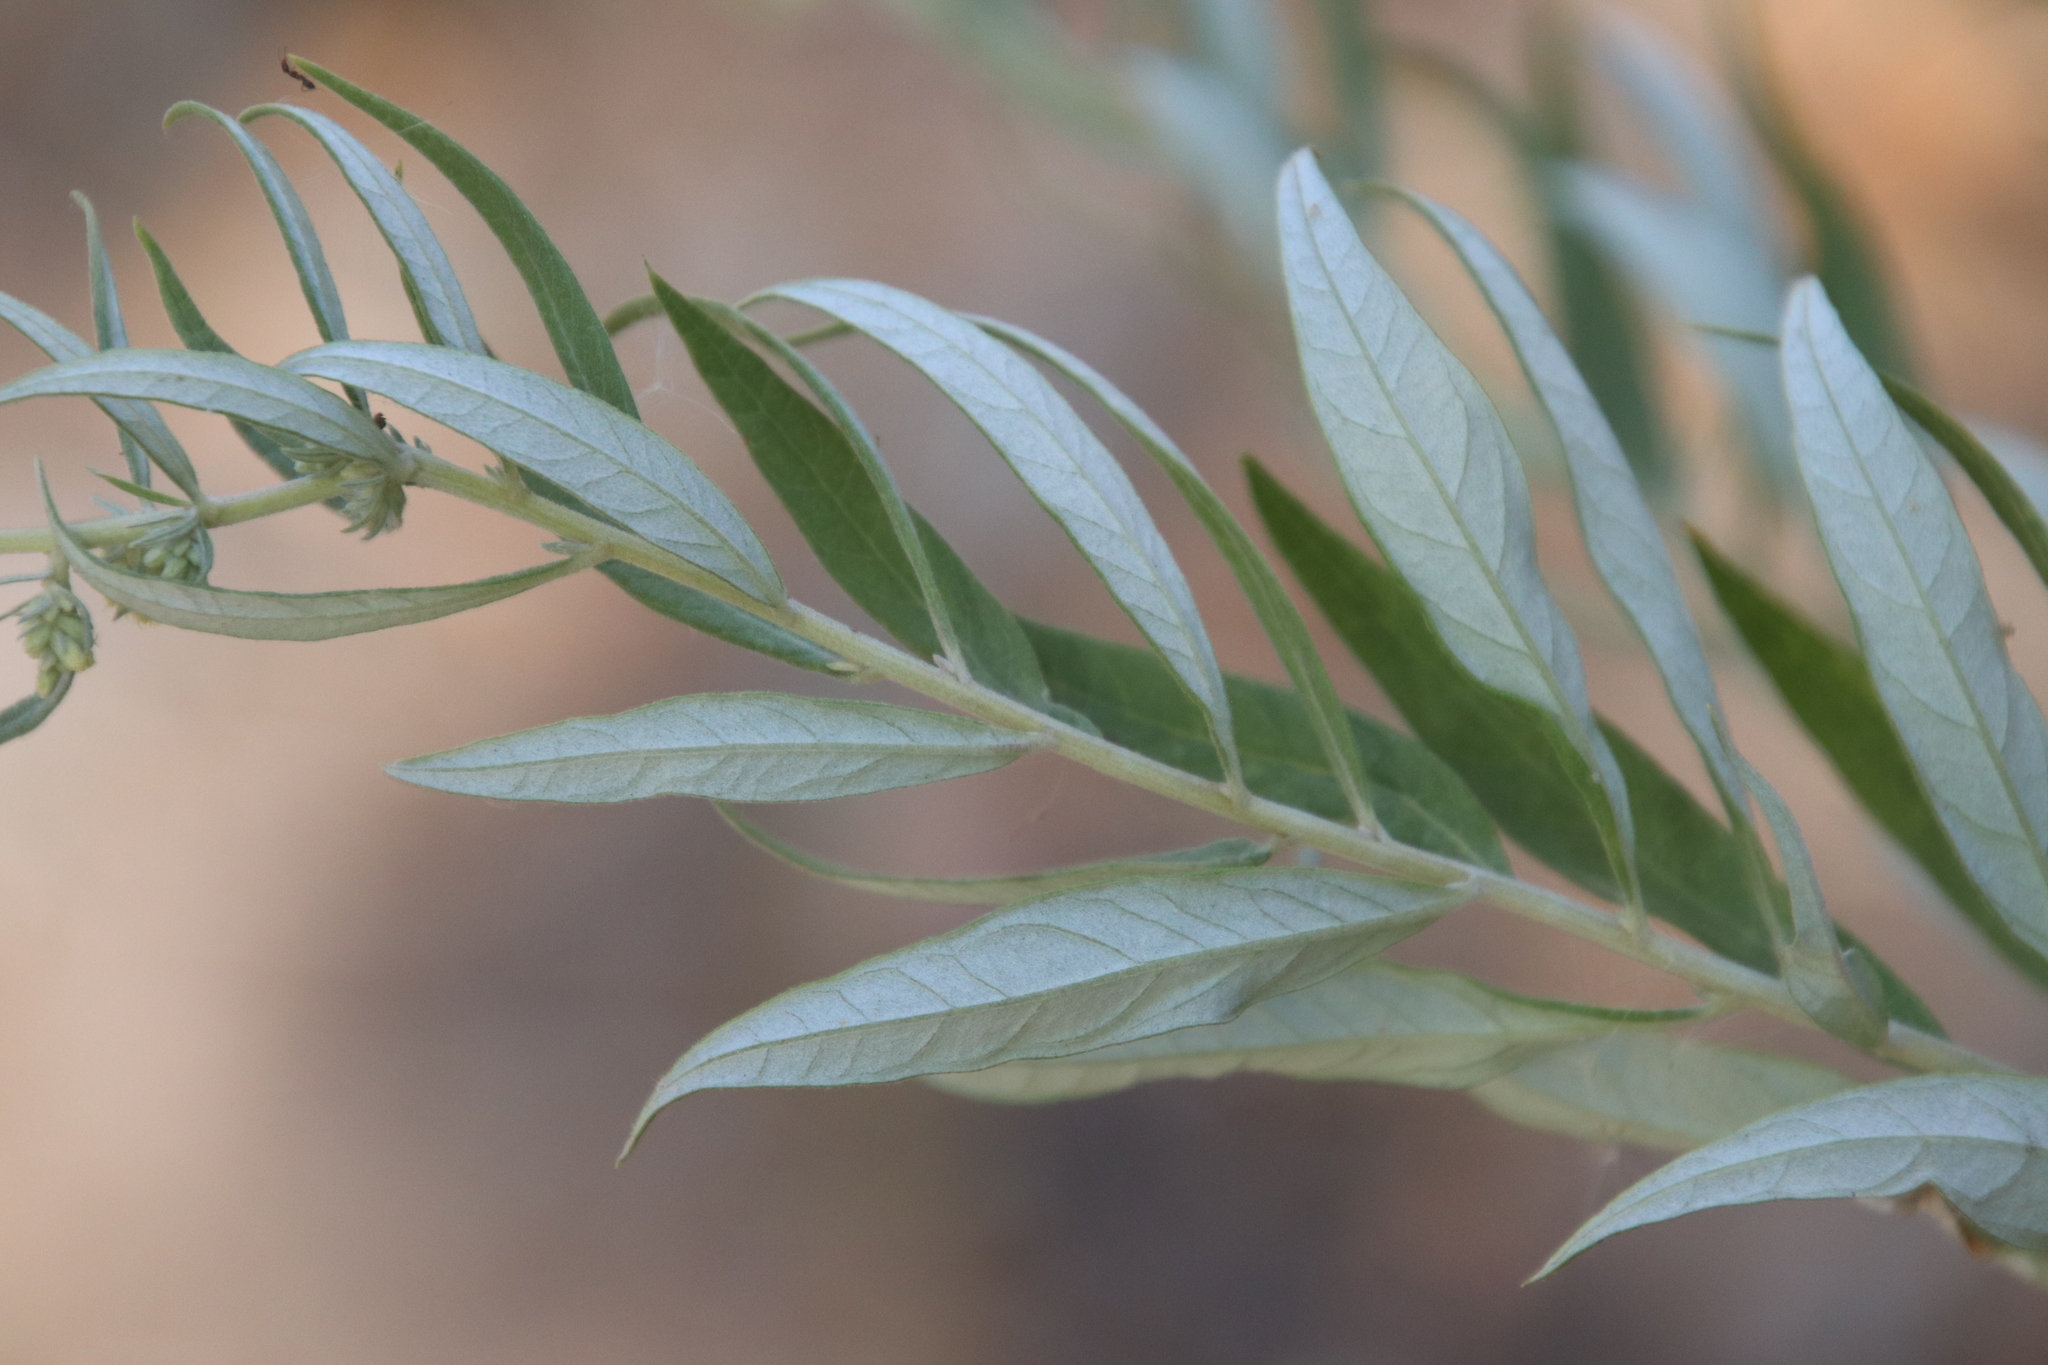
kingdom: Plantae
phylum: Tracheophyta
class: Magnoliopsida
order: Asterales
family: Asteraceae
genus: Artemisia
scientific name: Artemisia douglasiana
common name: Northwest mugwort
